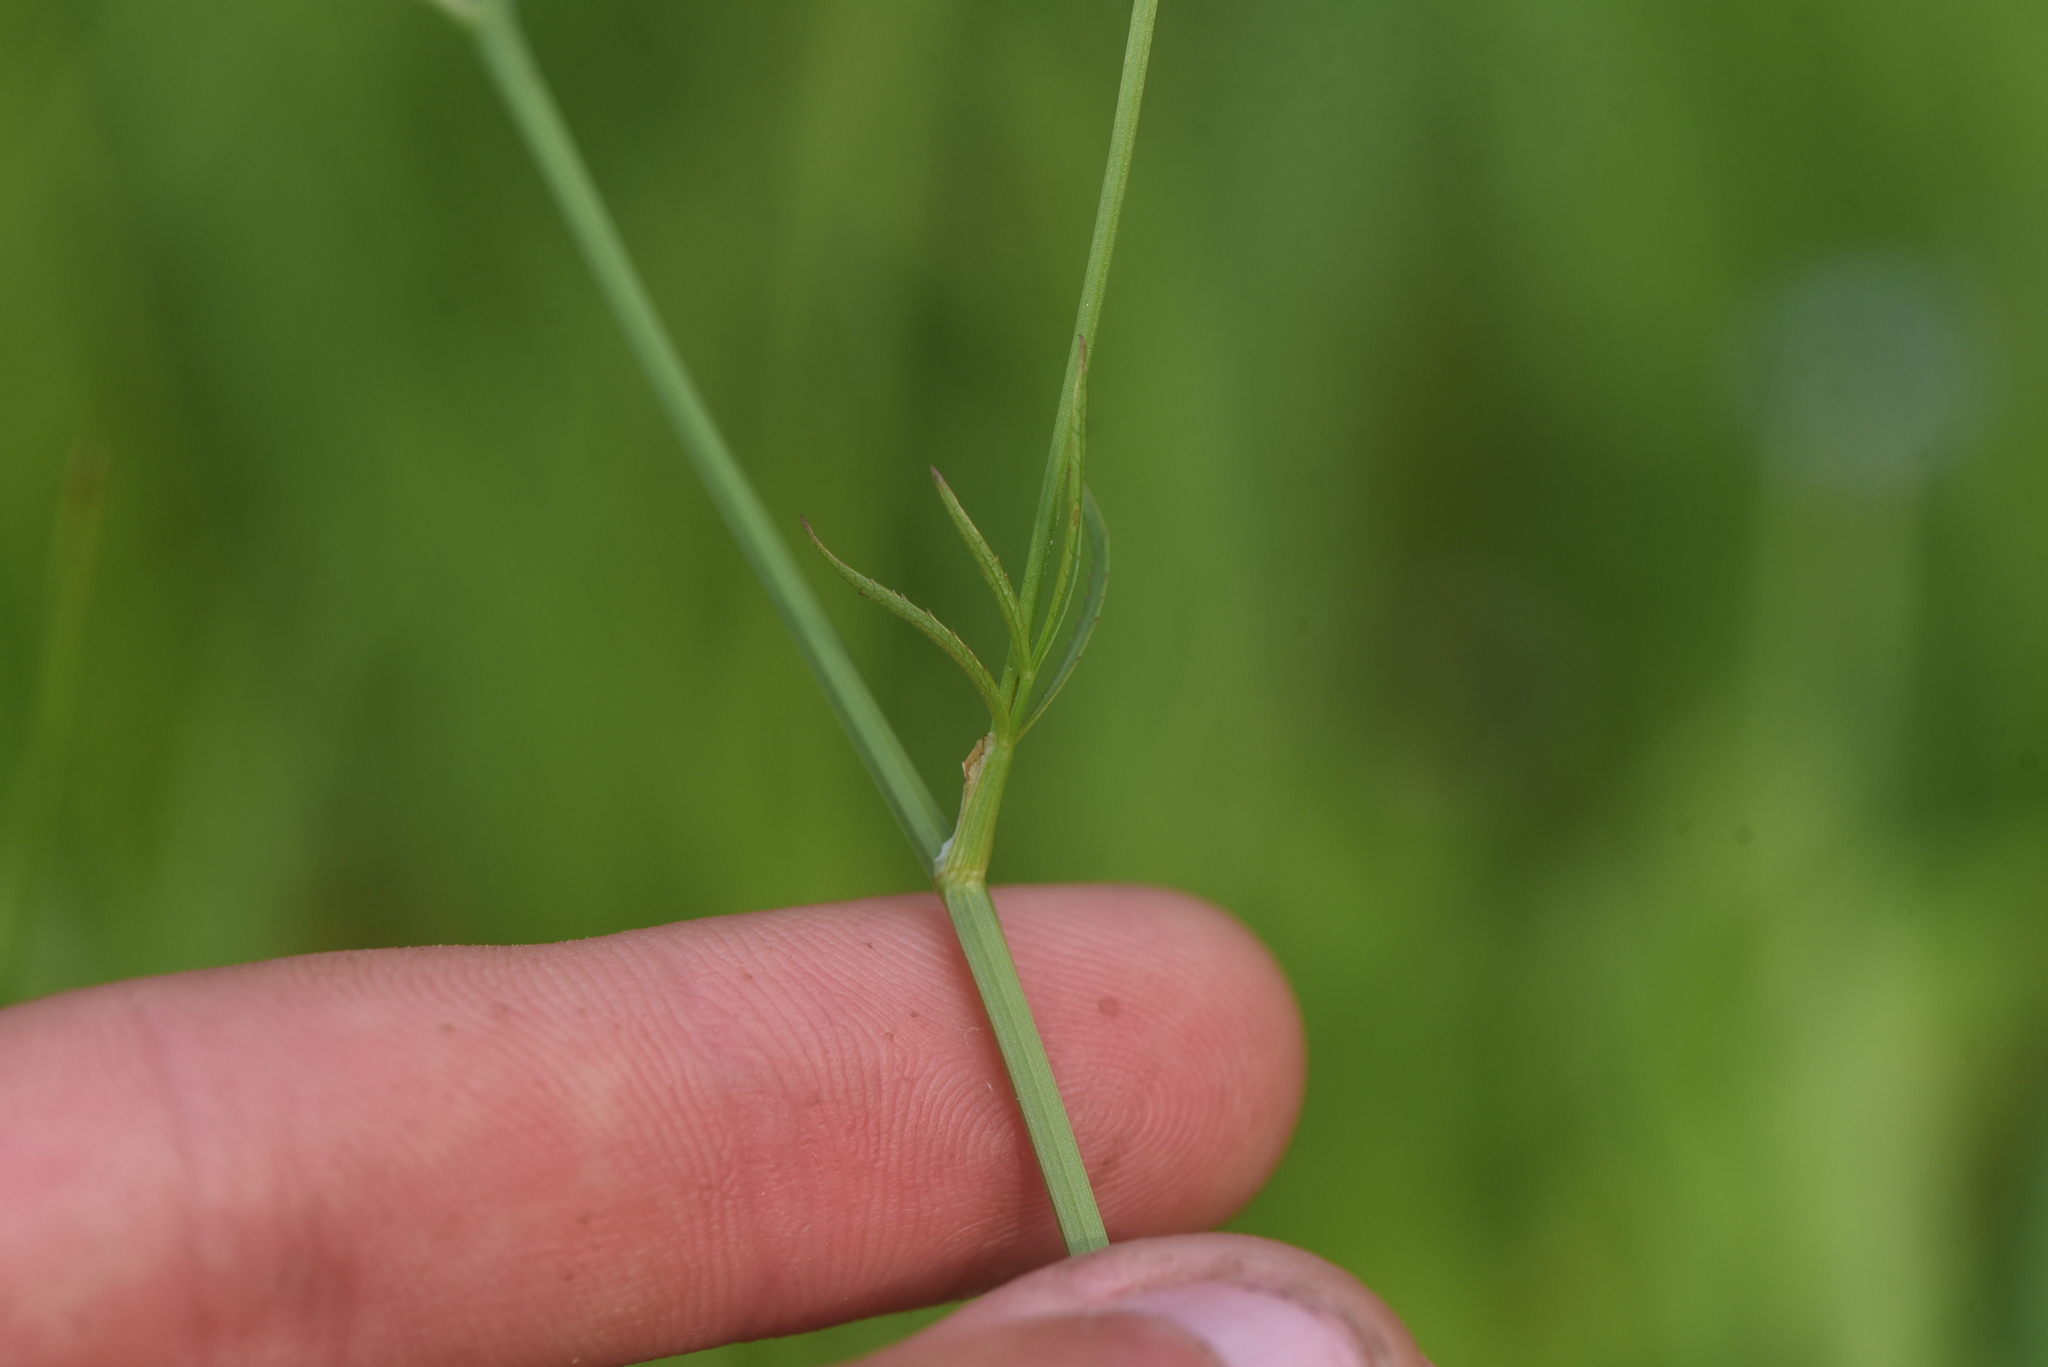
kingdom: Plantae
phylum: Tracheophyta
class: Magnoliopsida
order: Apiales
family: Apiaceae
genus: Sium
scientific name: Sium suave
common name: Hemlock water-parsnip
